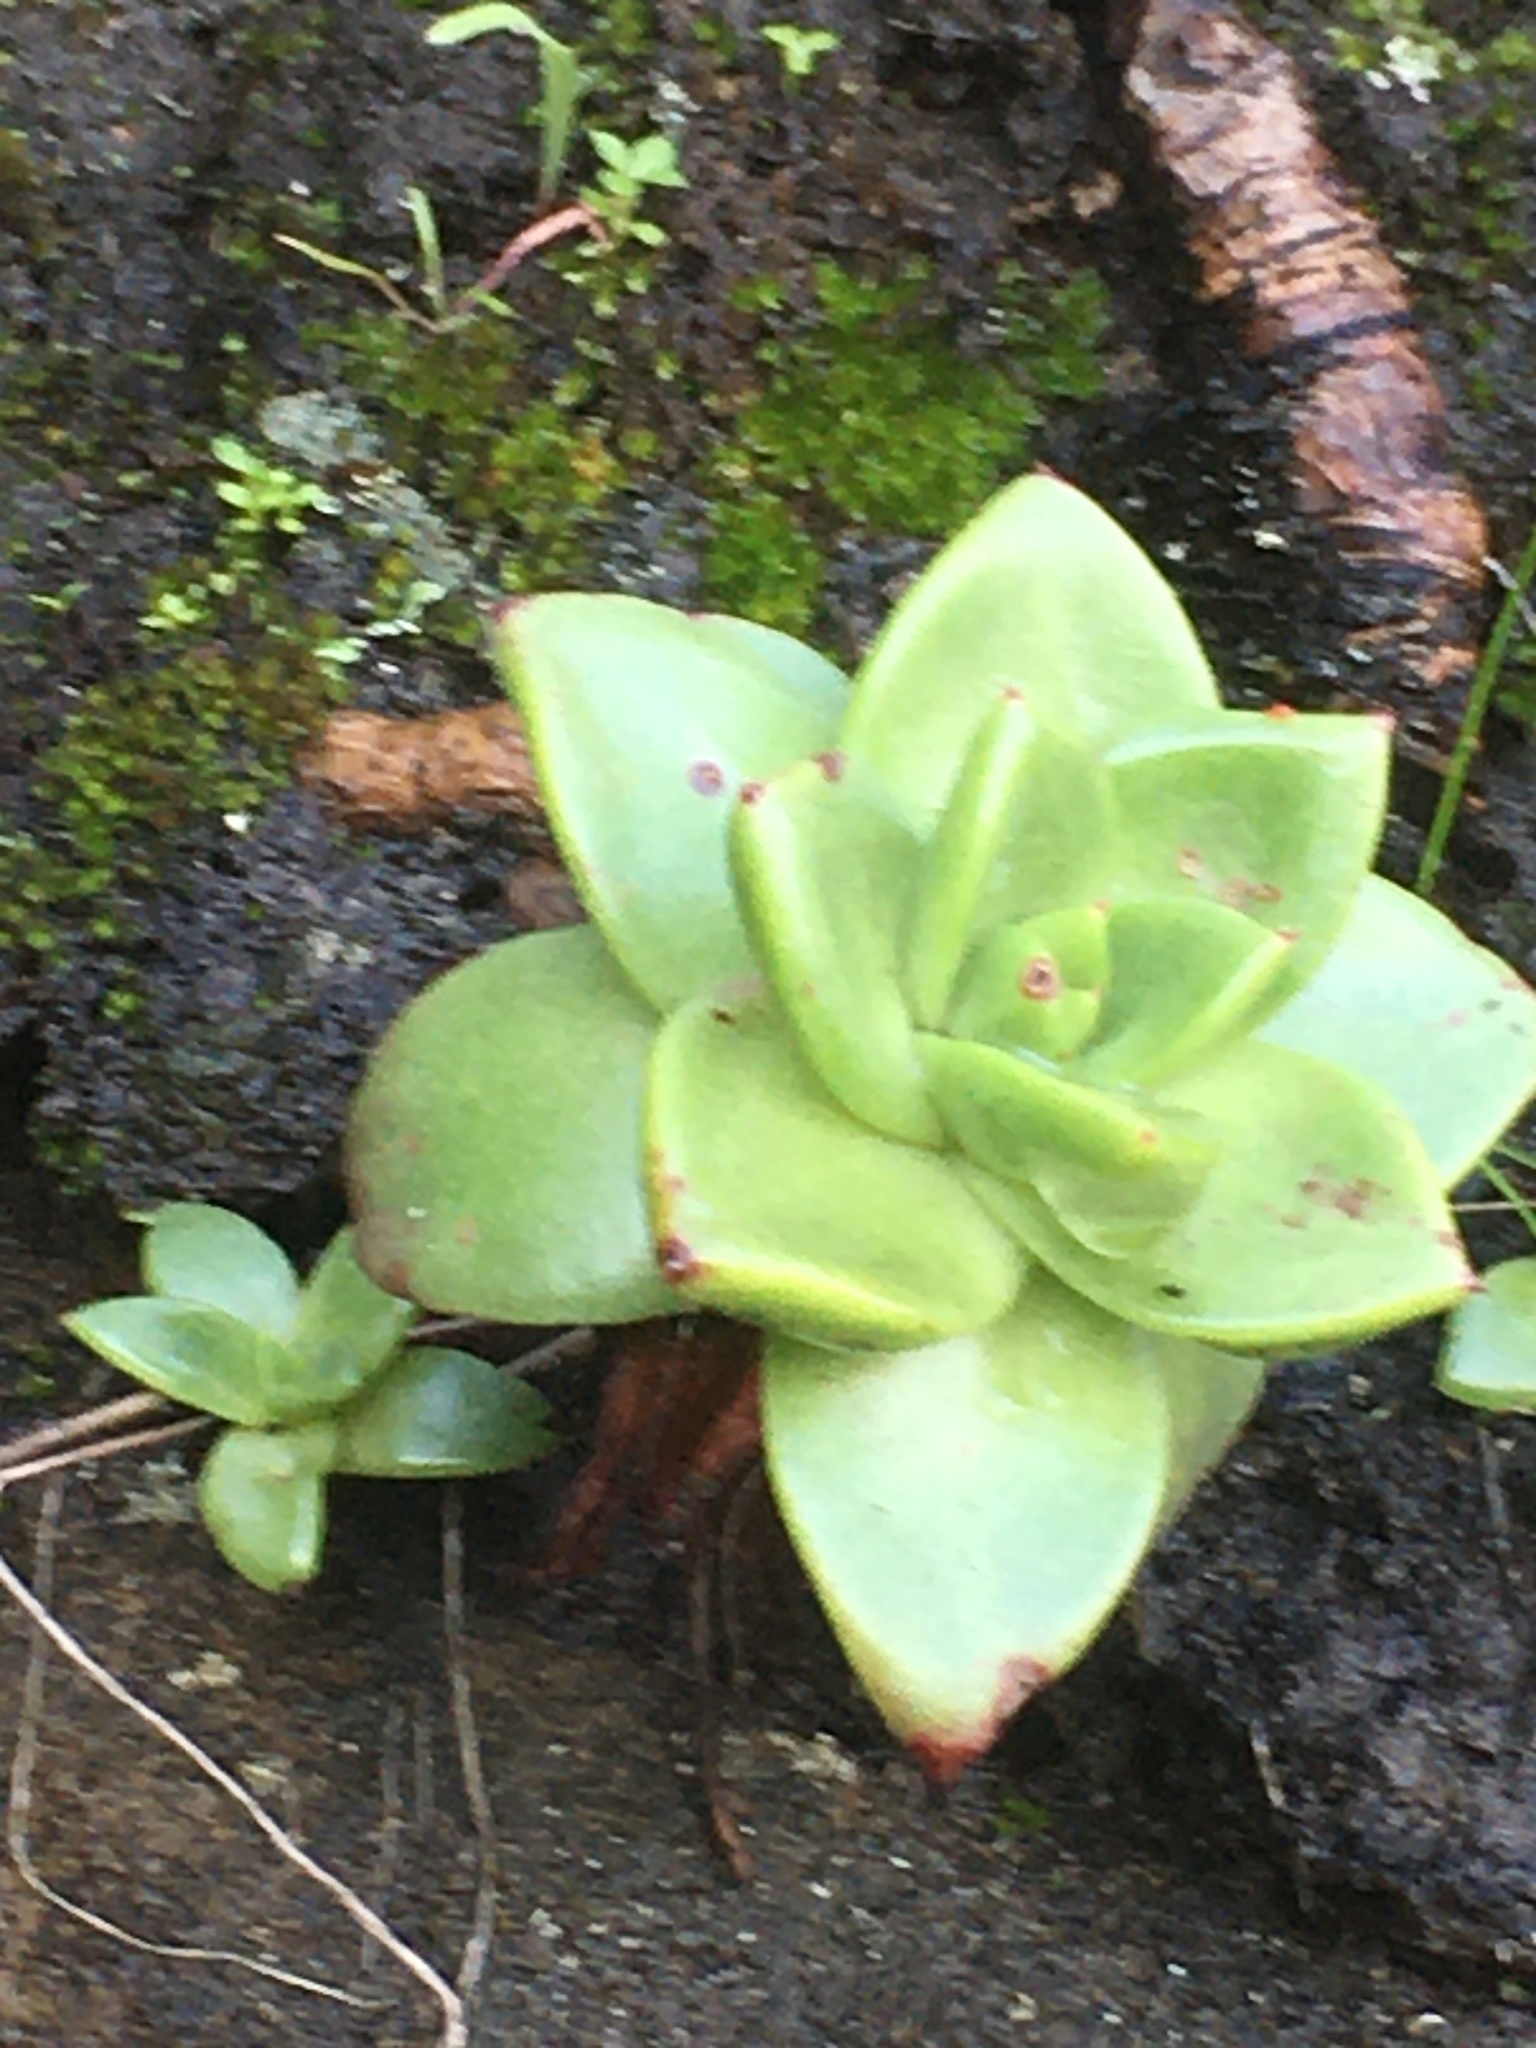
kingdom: Plantae
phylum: Tracheophyta
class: Magnoliopsida
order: Saxifragales
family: Crassulaceae
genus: Dudleya
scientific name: Dudleya farinosa
